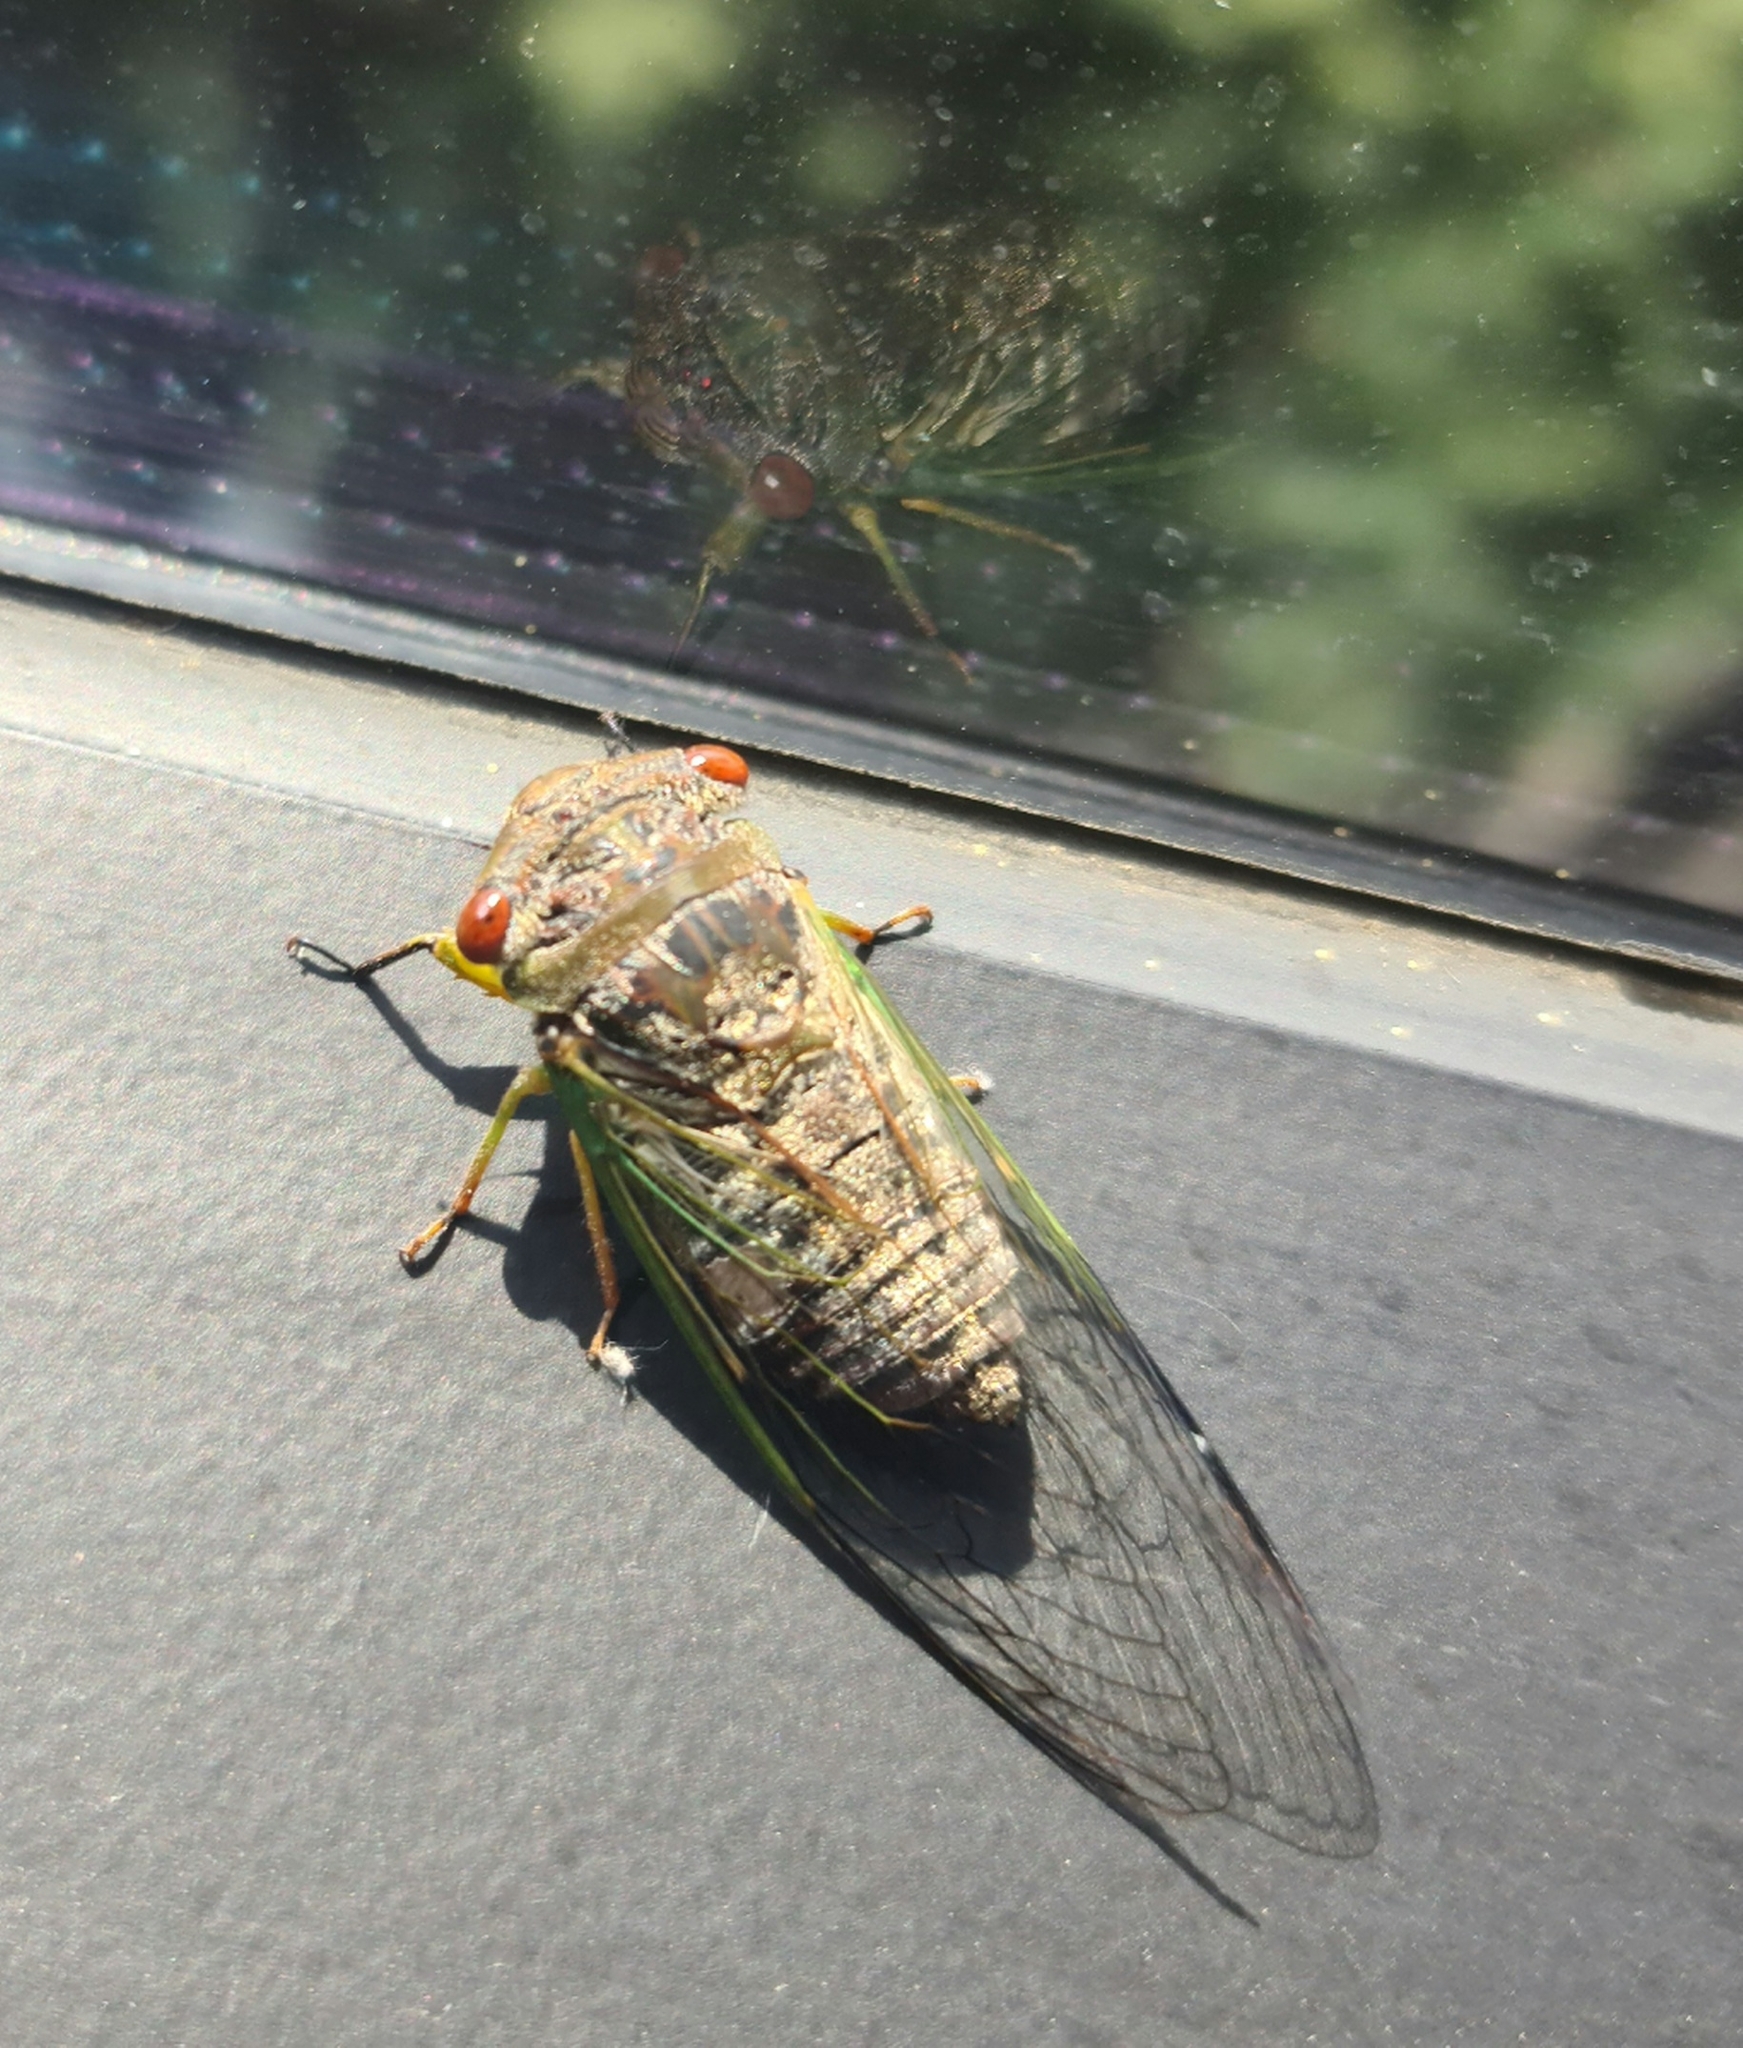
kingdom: Animalia
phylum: Arthropoda
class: Insecta
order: Hemiptera
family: Cicadidae
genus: Psaltoda
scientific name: Psaltoda claripennis
